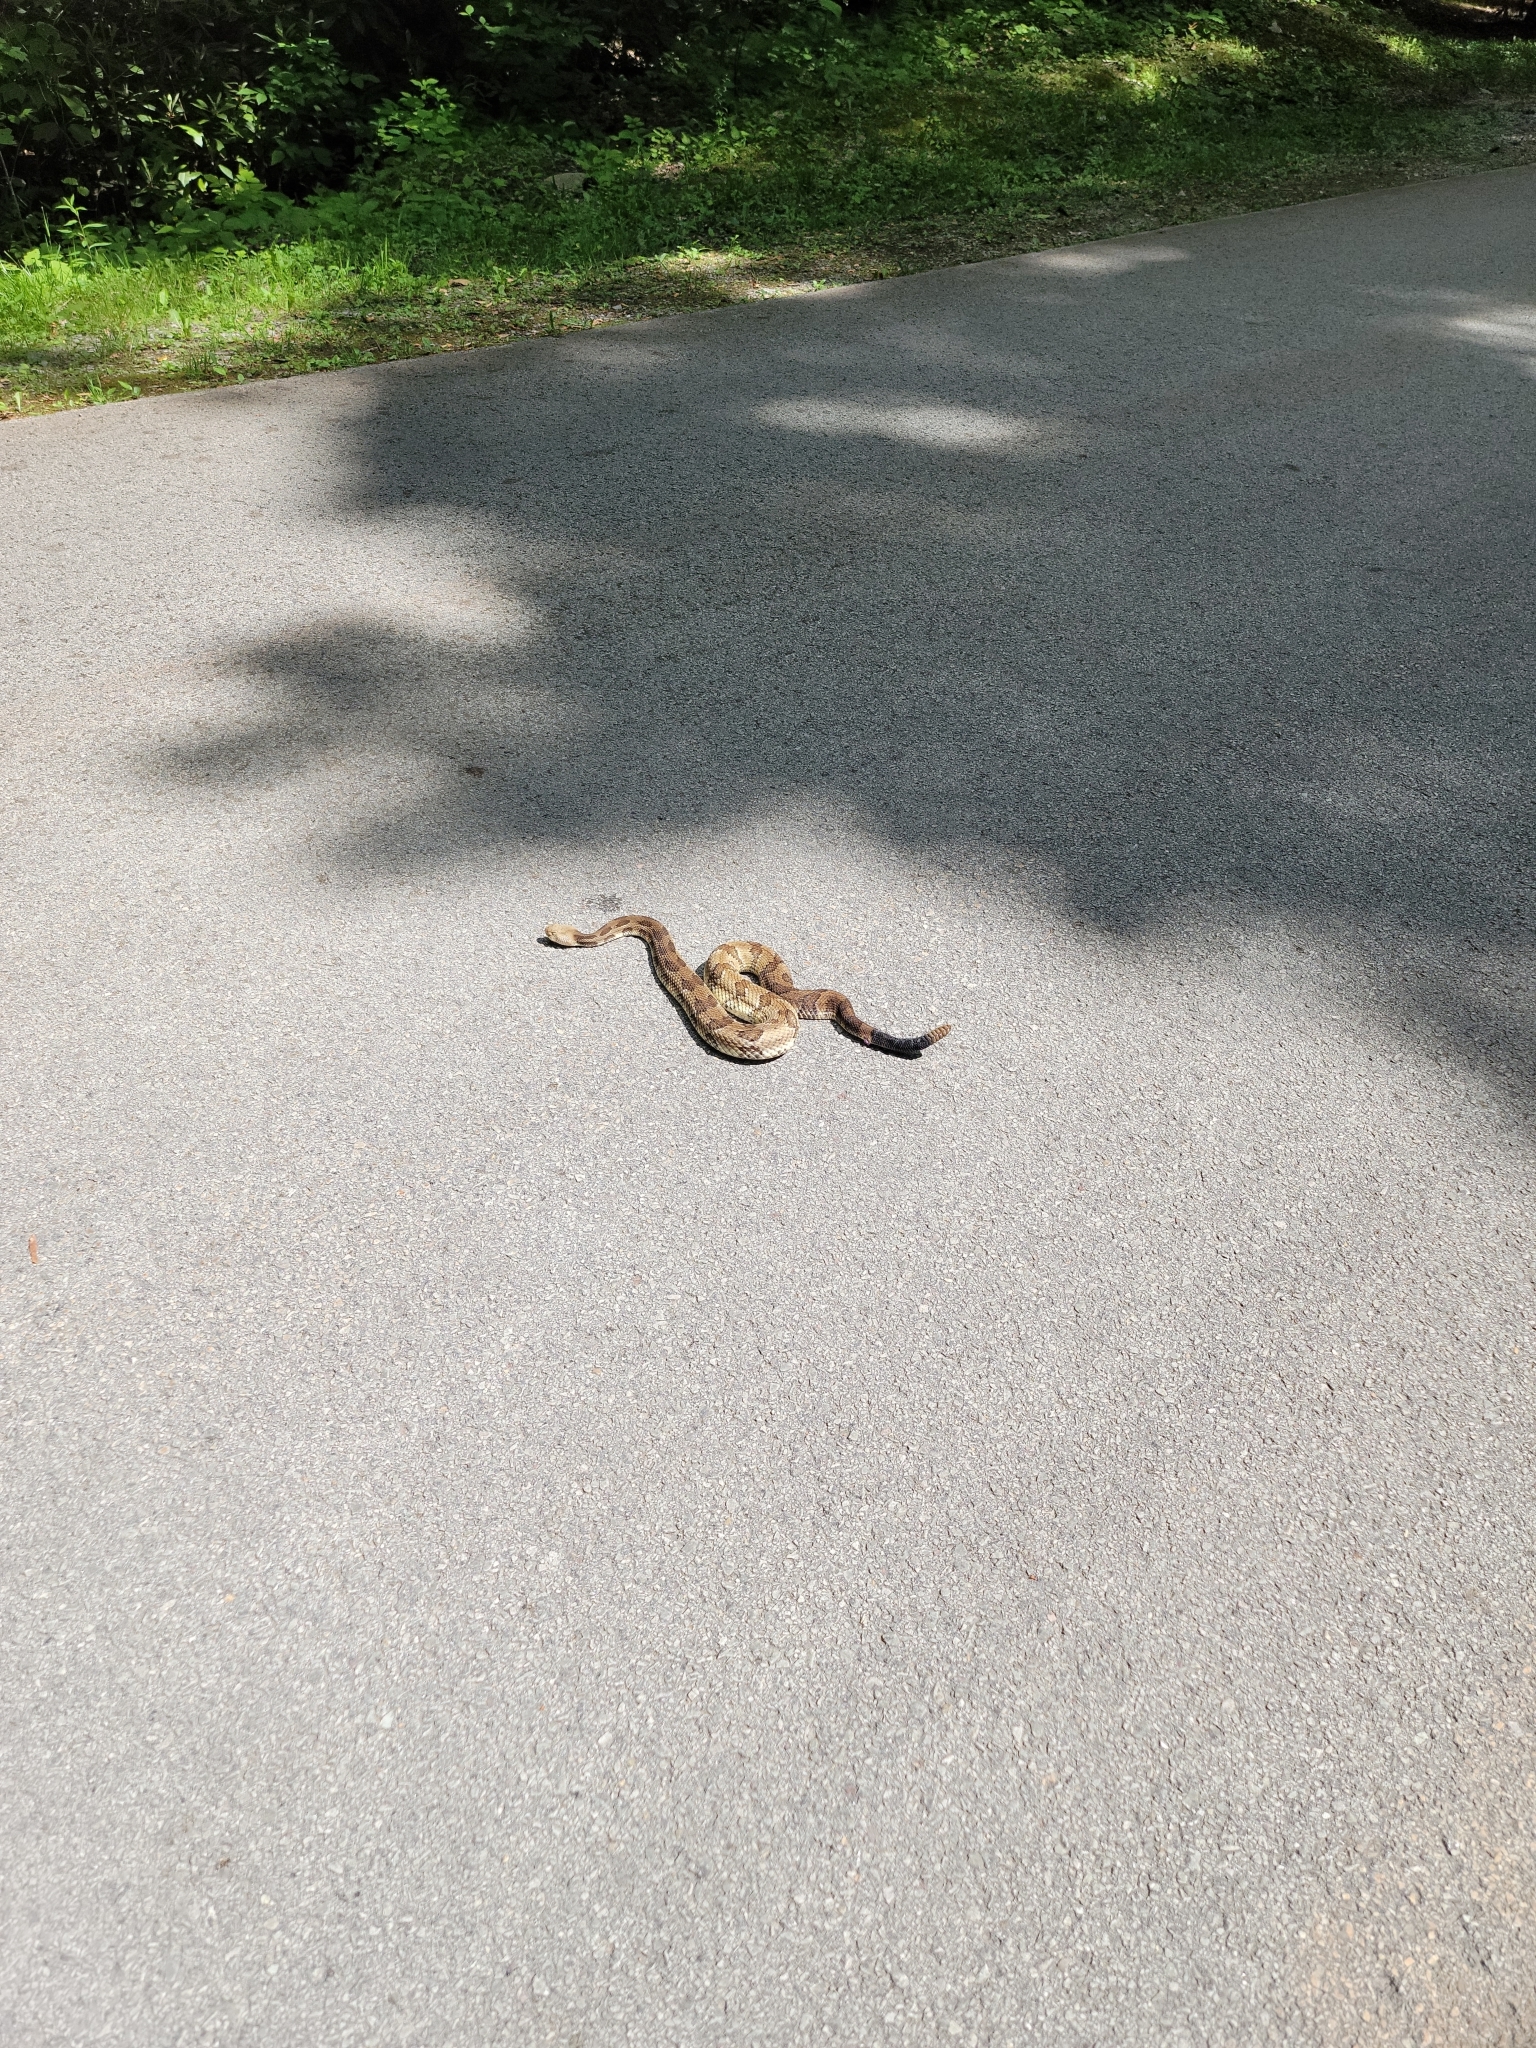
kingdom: Animalia
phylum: Chordata
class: Squamata
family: Viperidae
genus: Crotalus
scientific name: Crotalus horridus
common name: Timber rattlesnake
